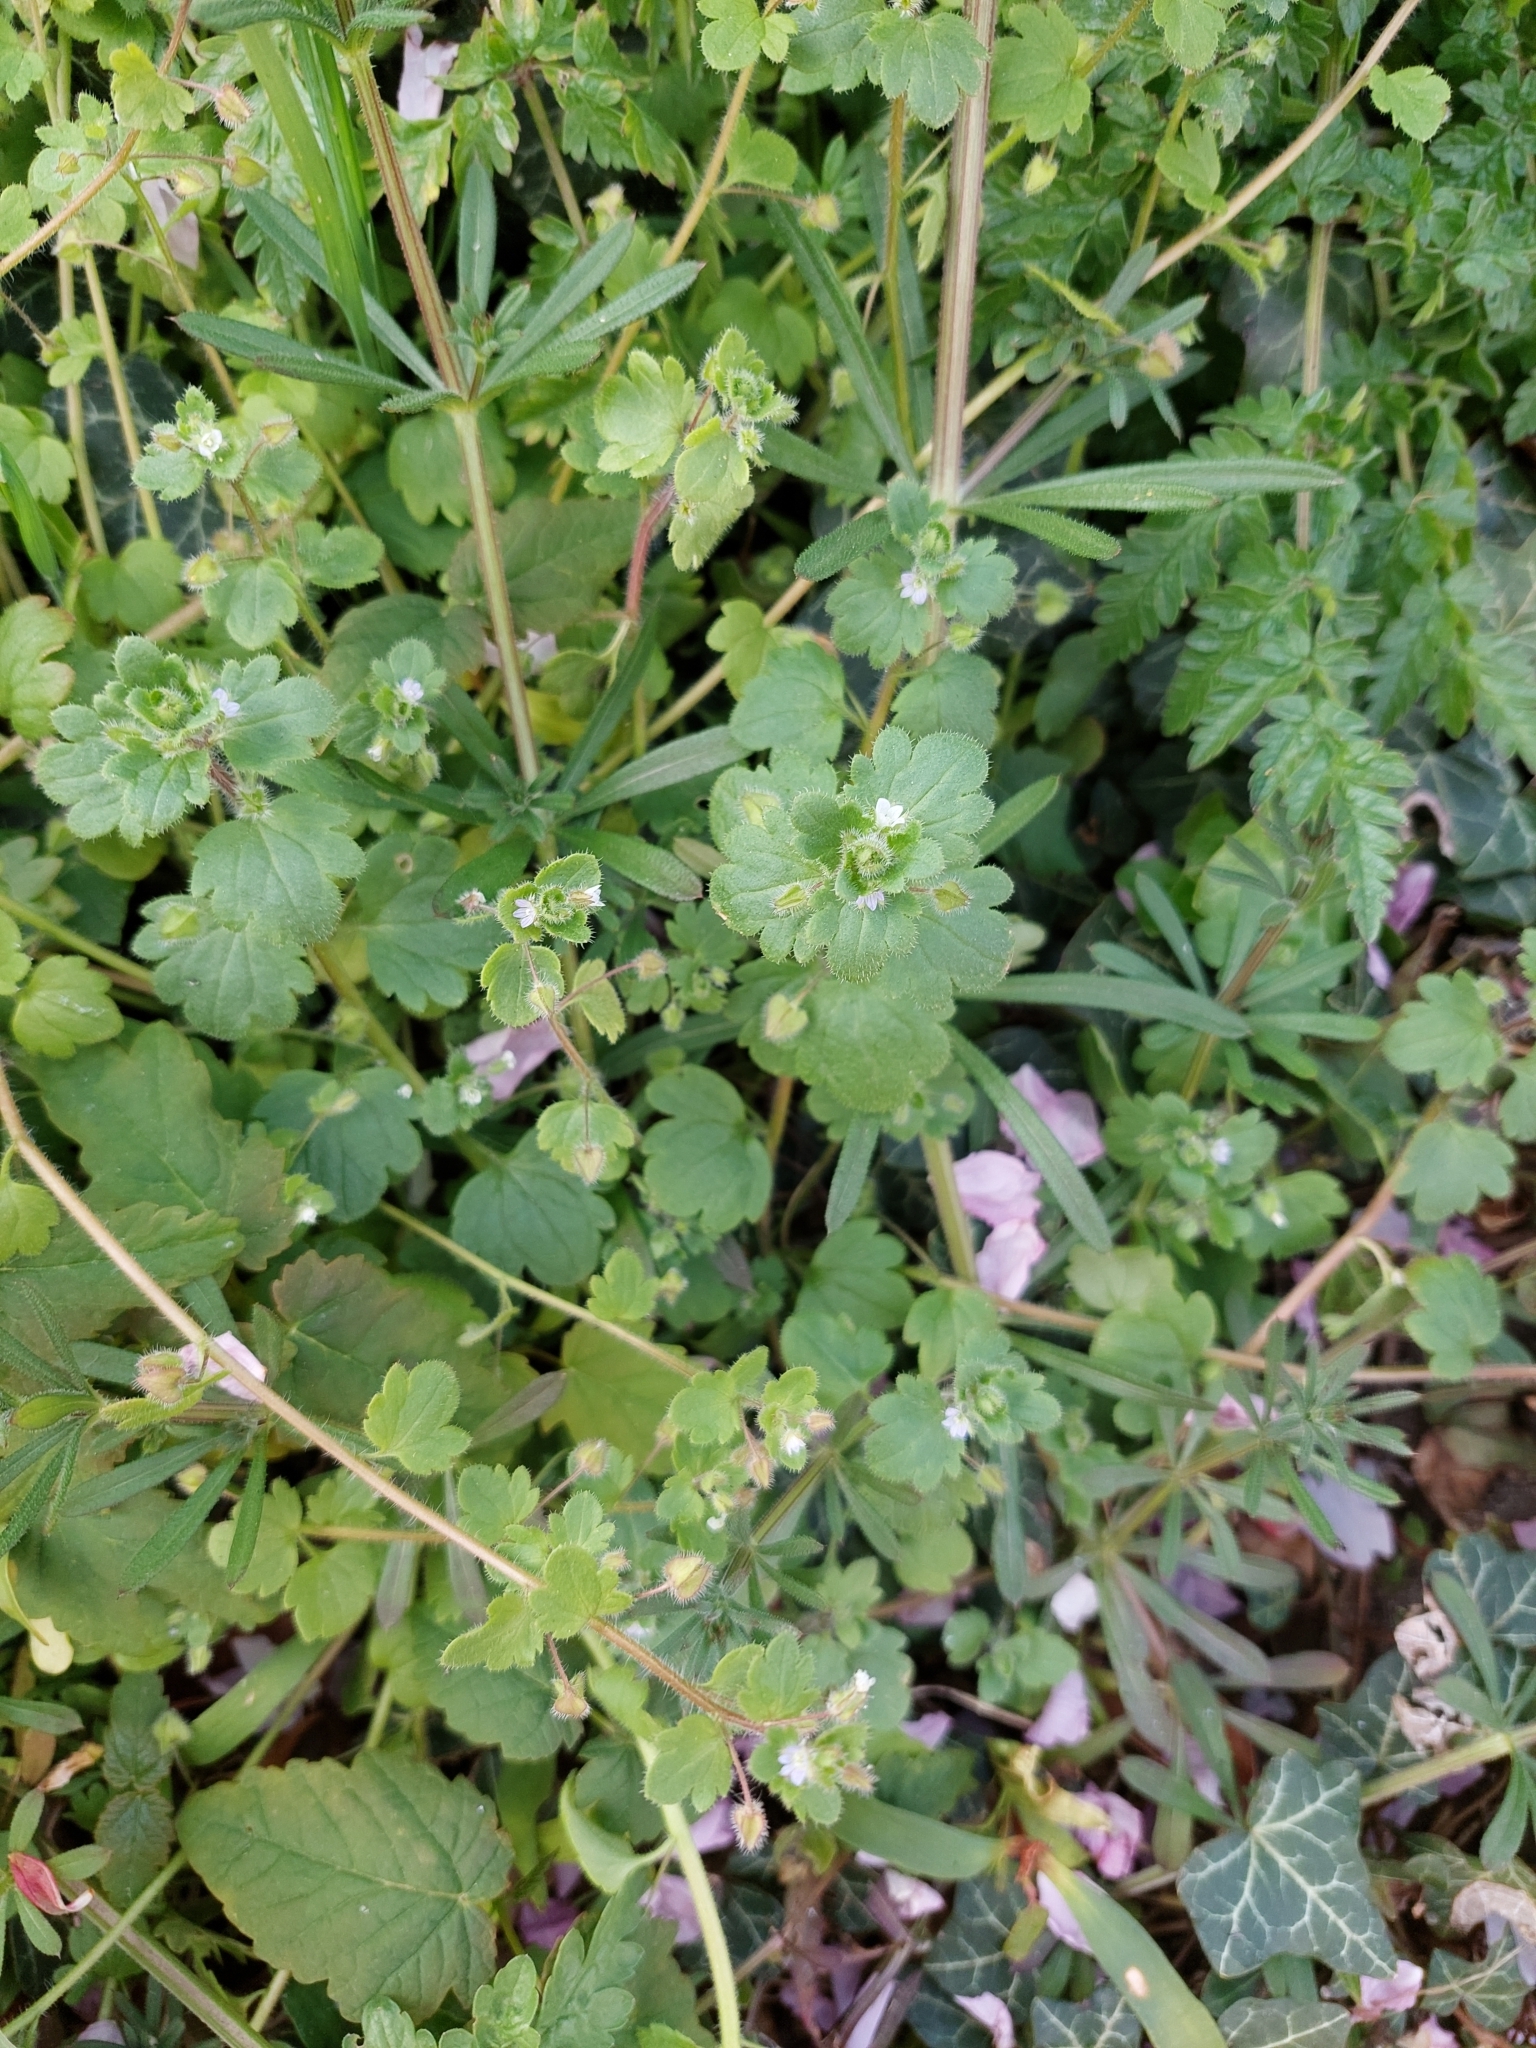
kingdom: Plantae
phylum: Tracheophyta
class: Magnoliopsida
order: Lamiales
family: Plantaginaceae
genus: Veronica
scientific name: Veronica hederifolia
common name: Ivy-leaved speedwell
